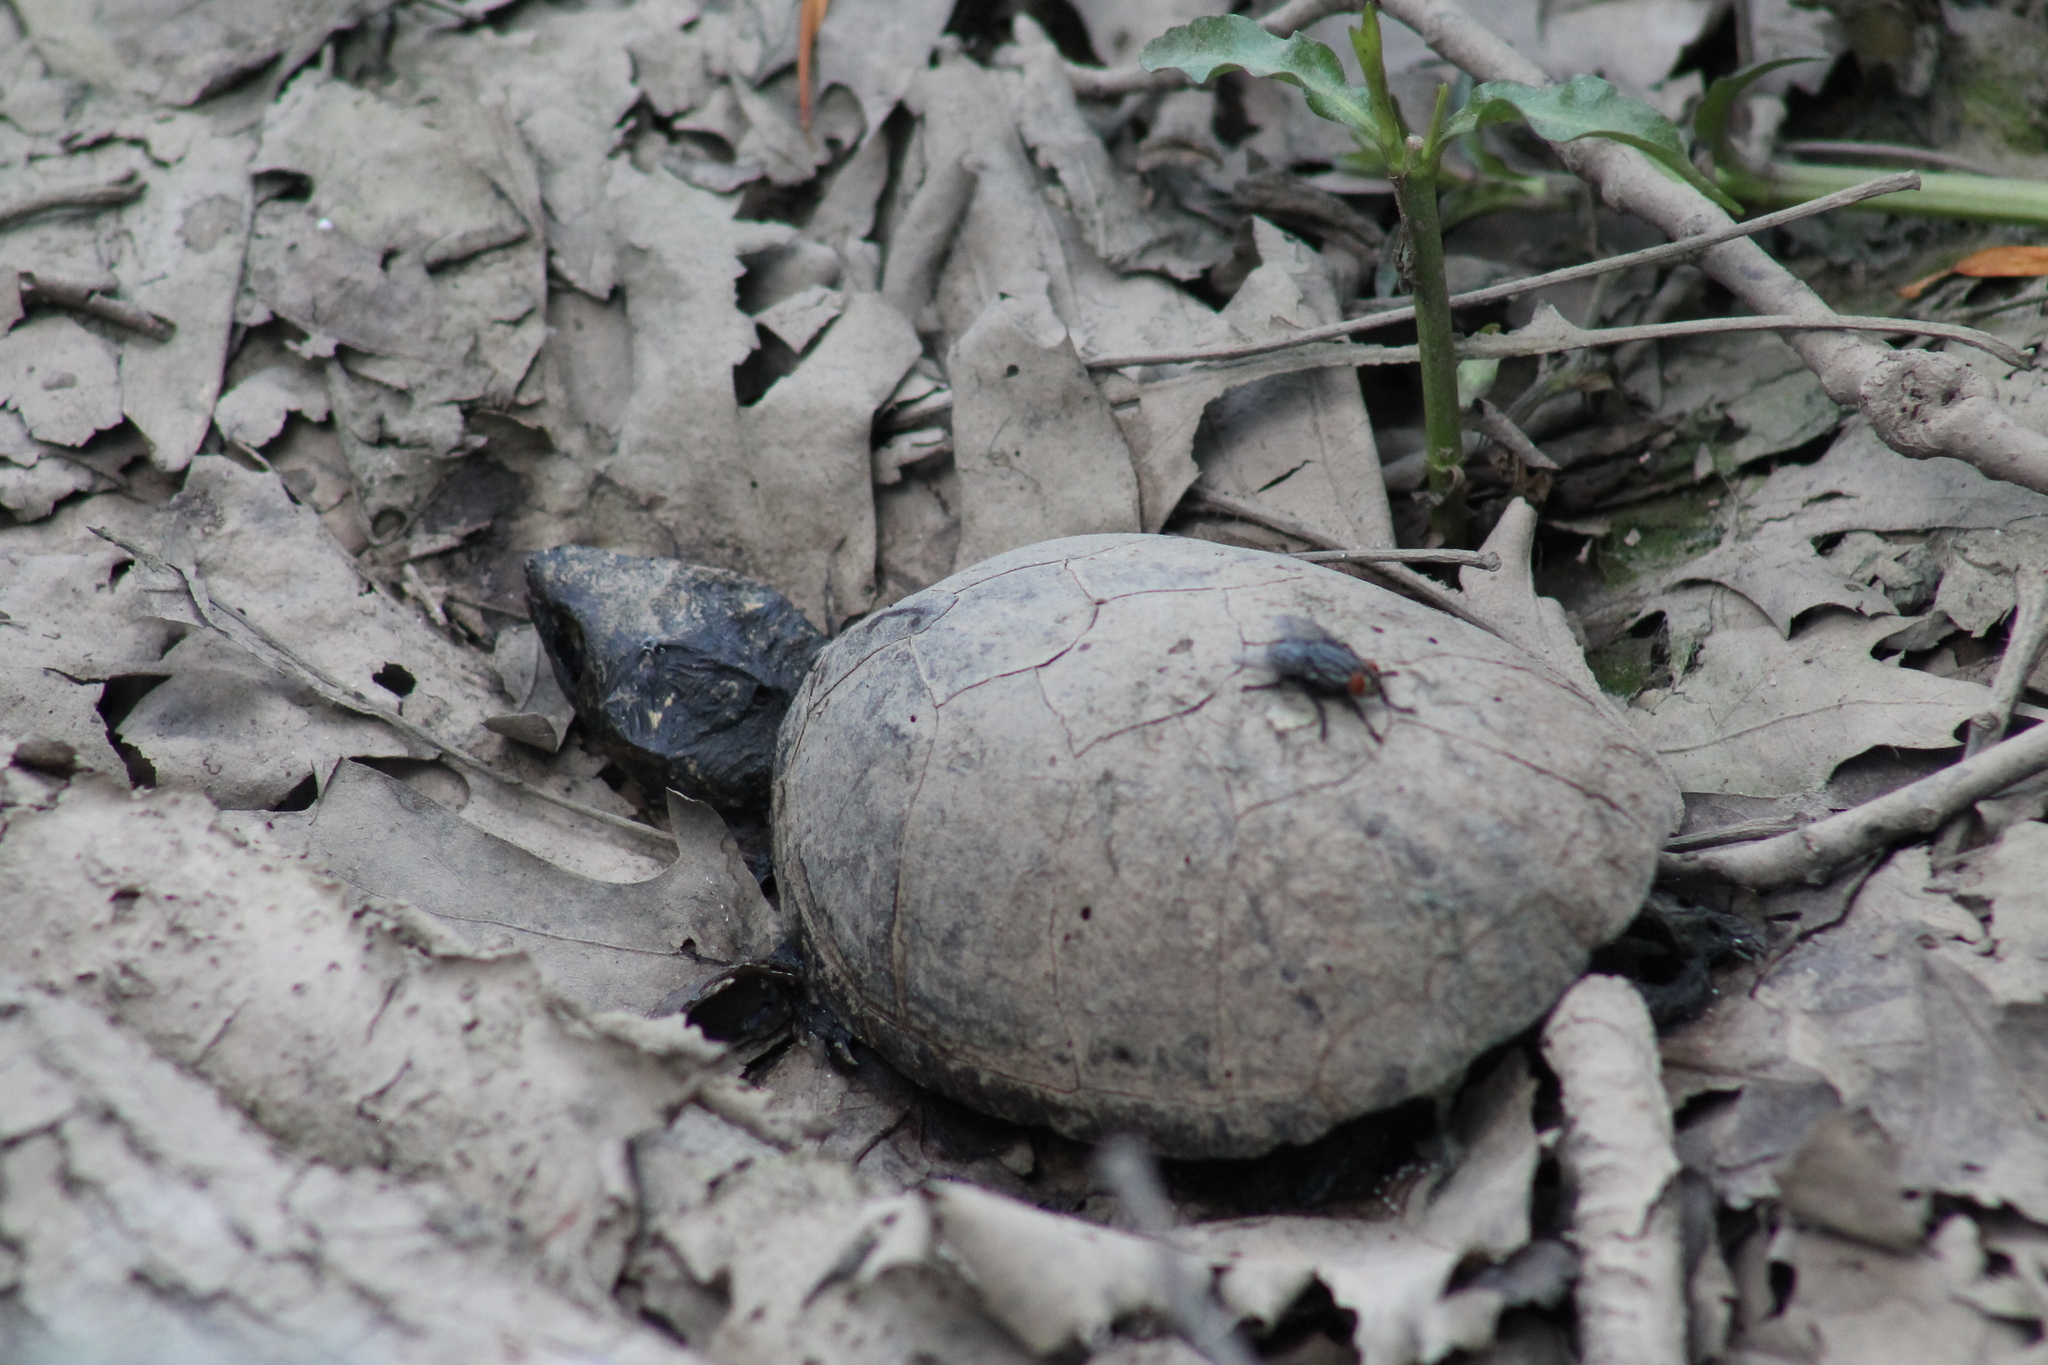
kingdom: Animalia
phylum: Chordata
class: Testudines
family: Kinosternidae
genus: Sternotherus
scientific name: Sternotherus odoratus
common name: Common musk turtle
